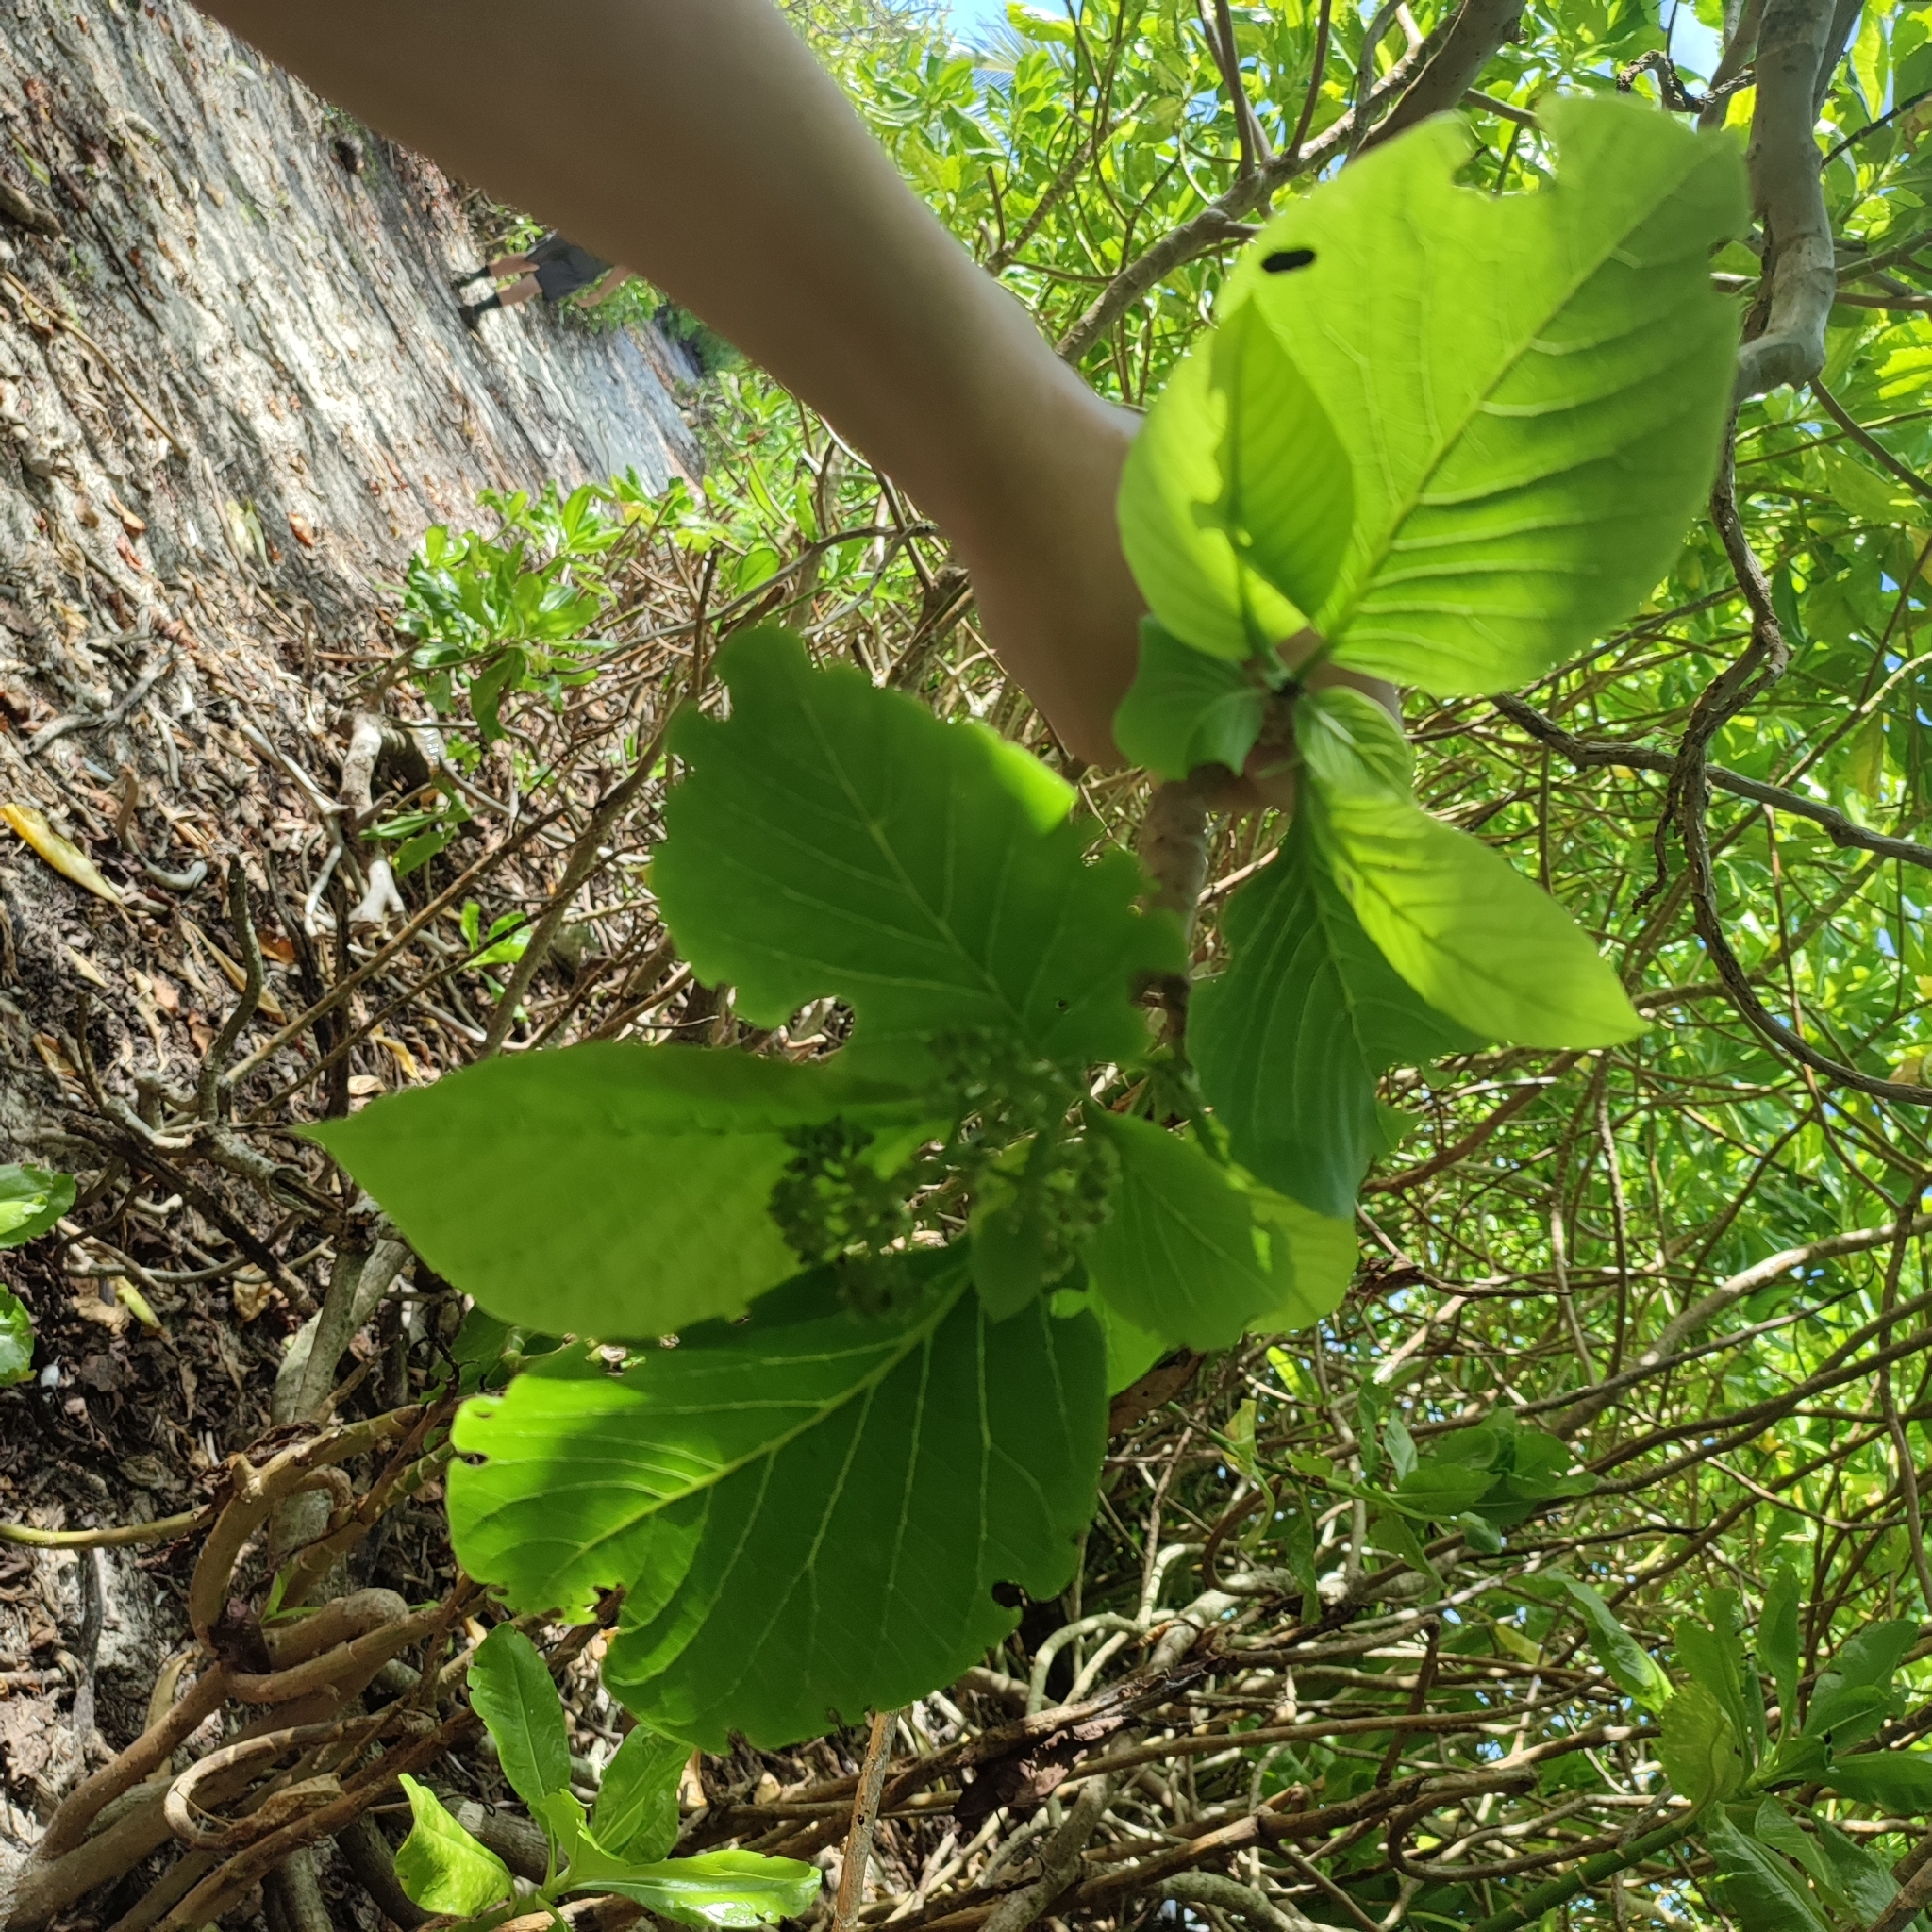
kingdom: Plantae
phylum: Tracheophyta
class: Magnoliopsida
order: Caryophyllales
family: Nyctaginaceae
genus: Ceodes
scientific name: Ceodes
